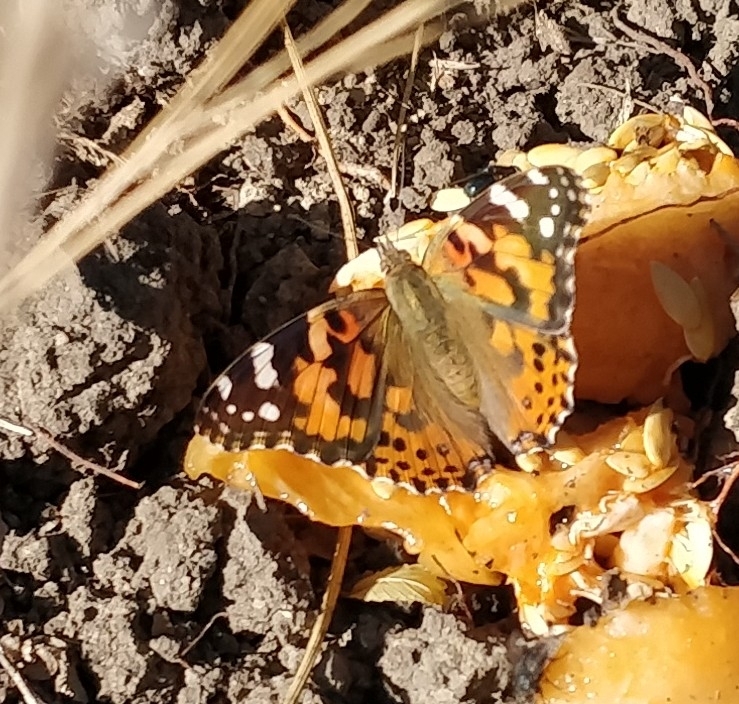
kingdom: Animalia
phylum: Arthropoda
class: Insecta
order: Lepidoptera
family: Nymphalidae
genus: Vanessa
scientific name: Vanessa cardui
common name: Painted lady
